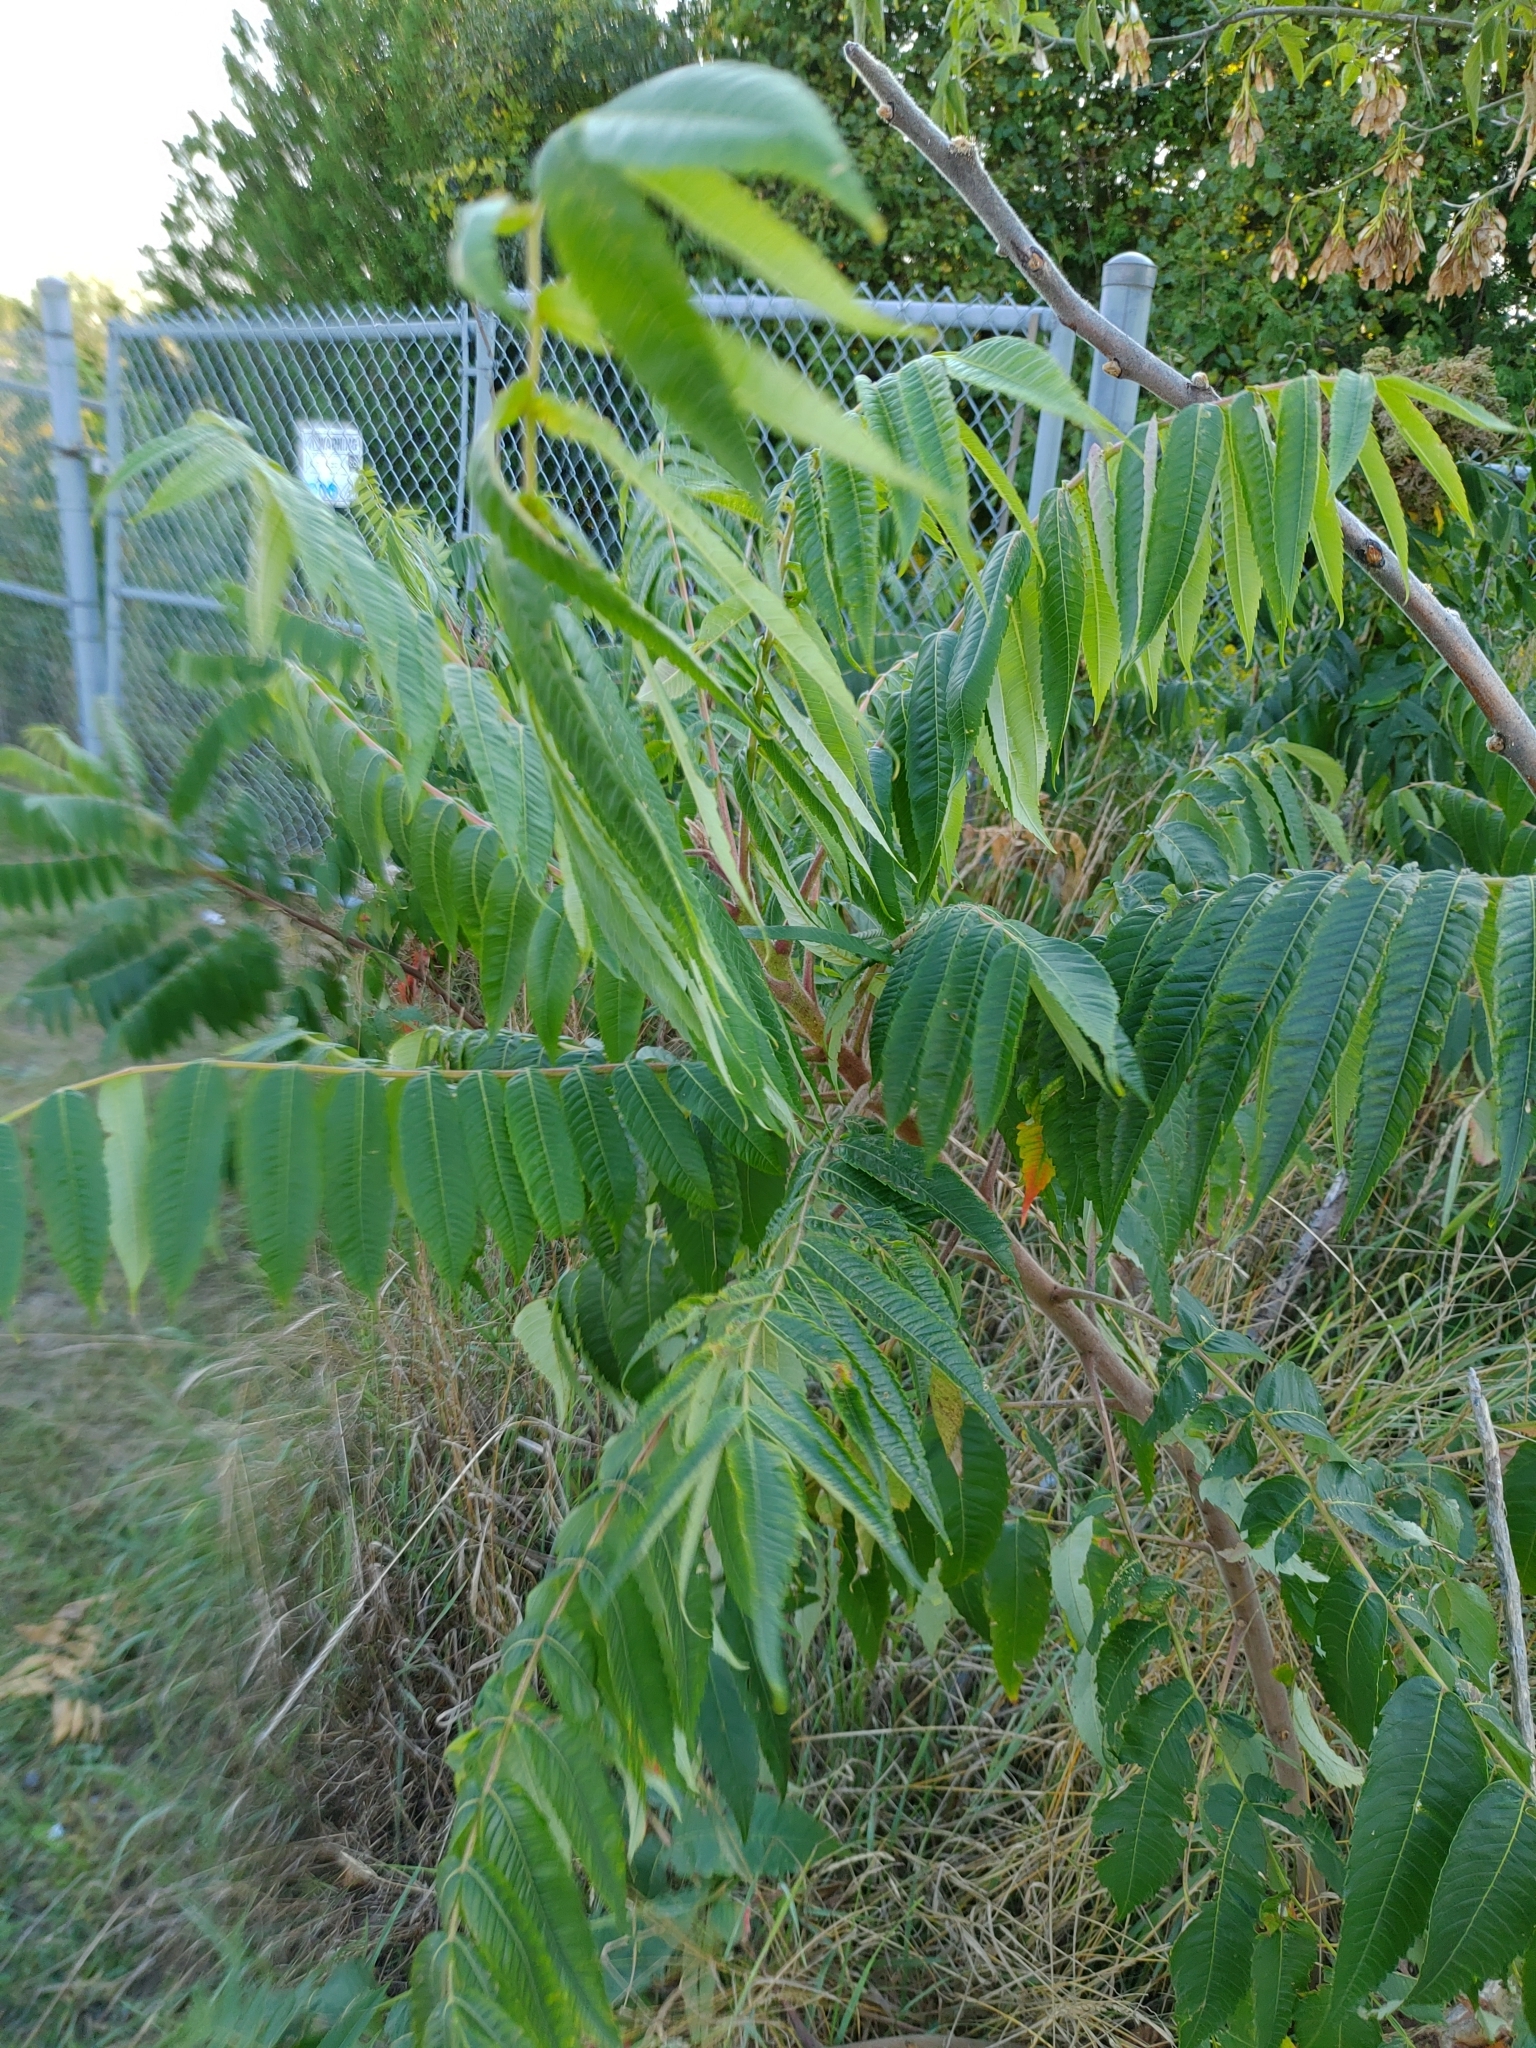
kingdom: Plantae
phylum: Tracheophyta
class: Magnoliopsida
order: Sapindales
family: Anacardiaceae
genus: Rhus
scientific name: Rhus typhina
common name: Staghorn sumac
